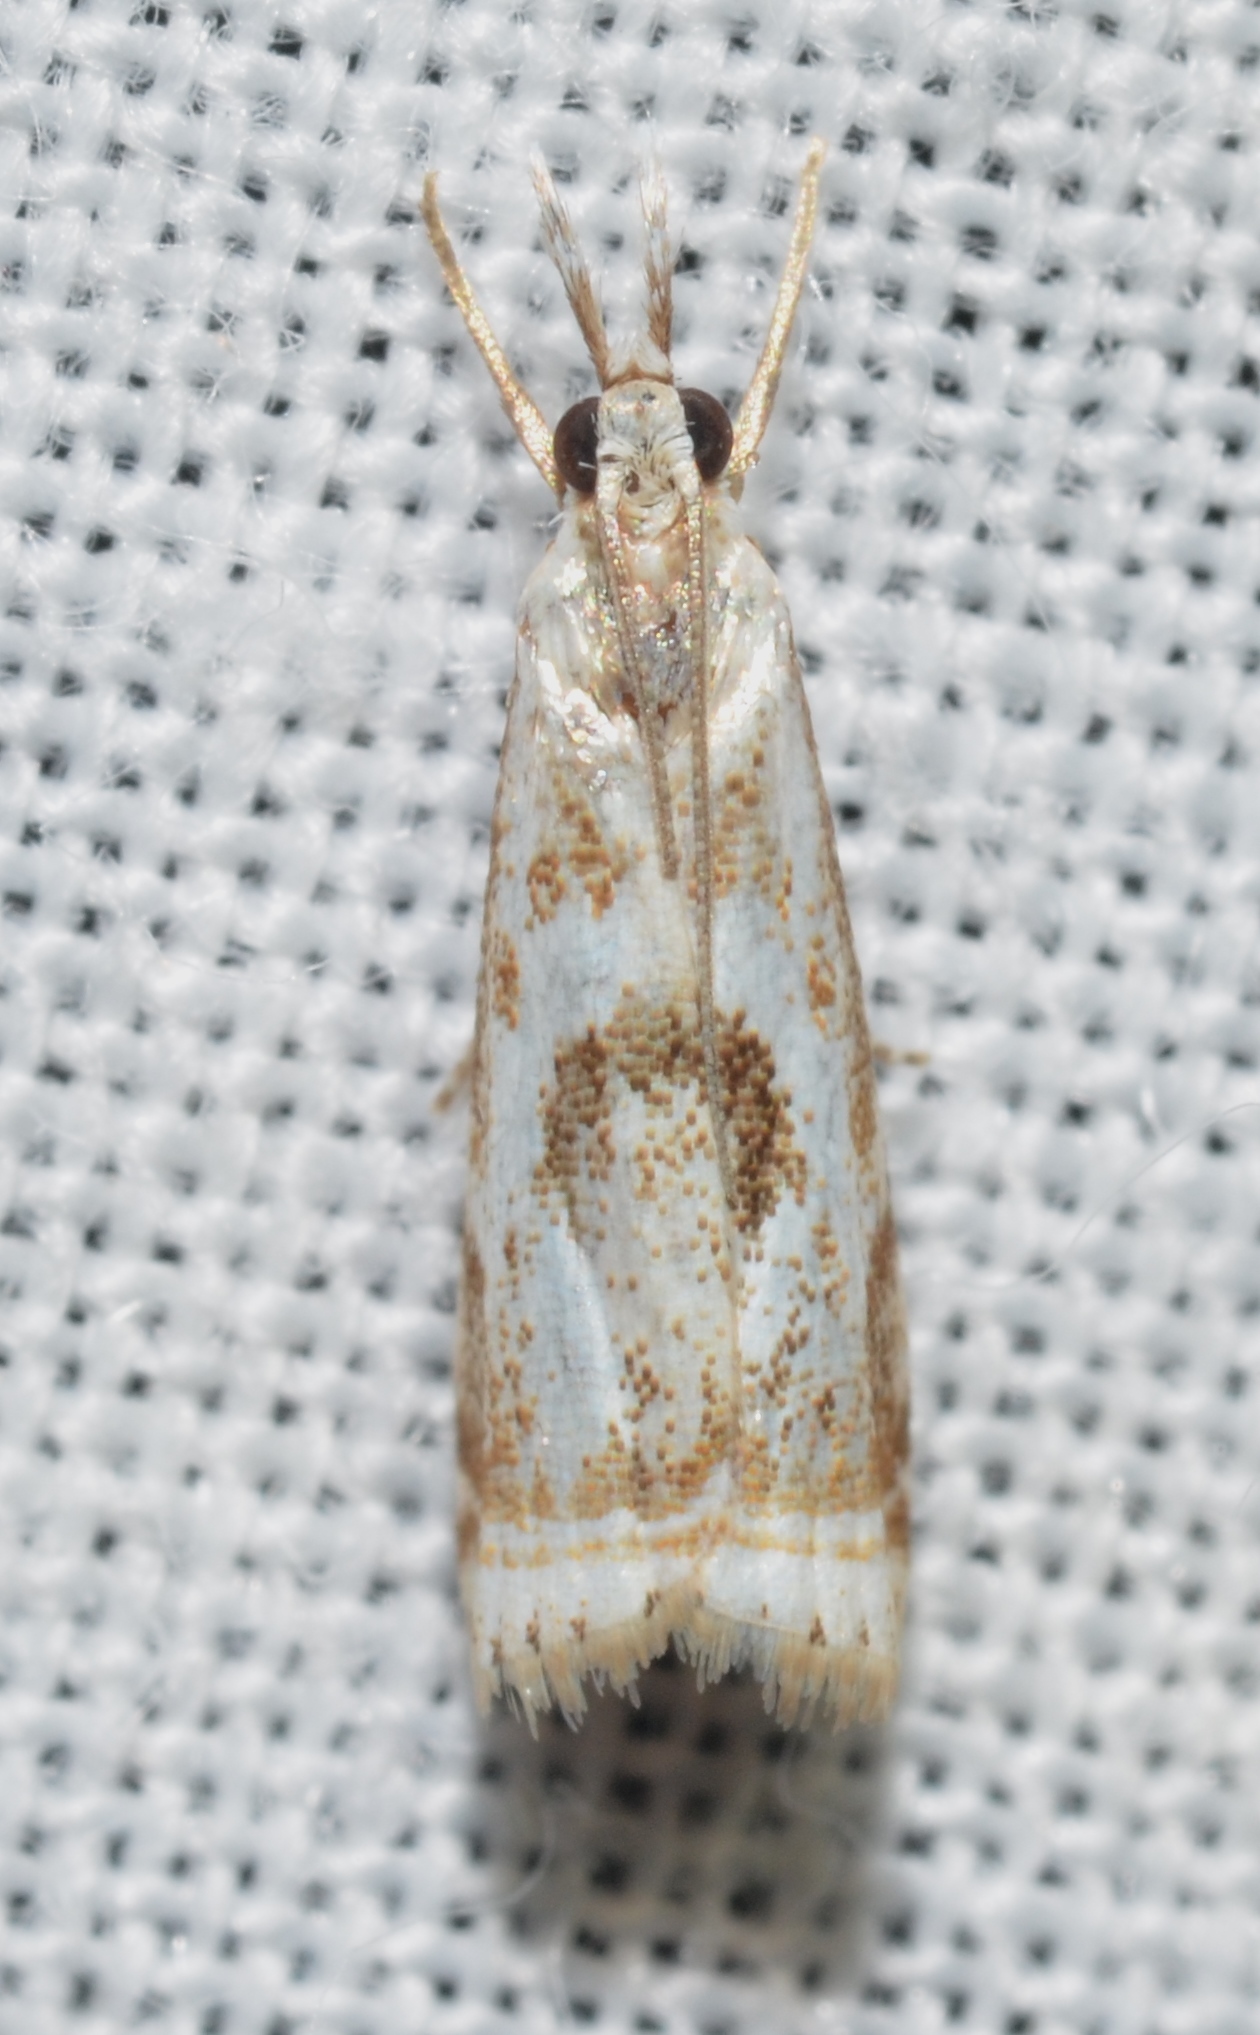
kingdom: Animalia
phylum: Arthropoda
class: Insecta
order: Lepidoptera
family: Crambidae
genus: Microcrambus
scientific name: Microcrambus elegans
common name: Elegant grass-veneer
